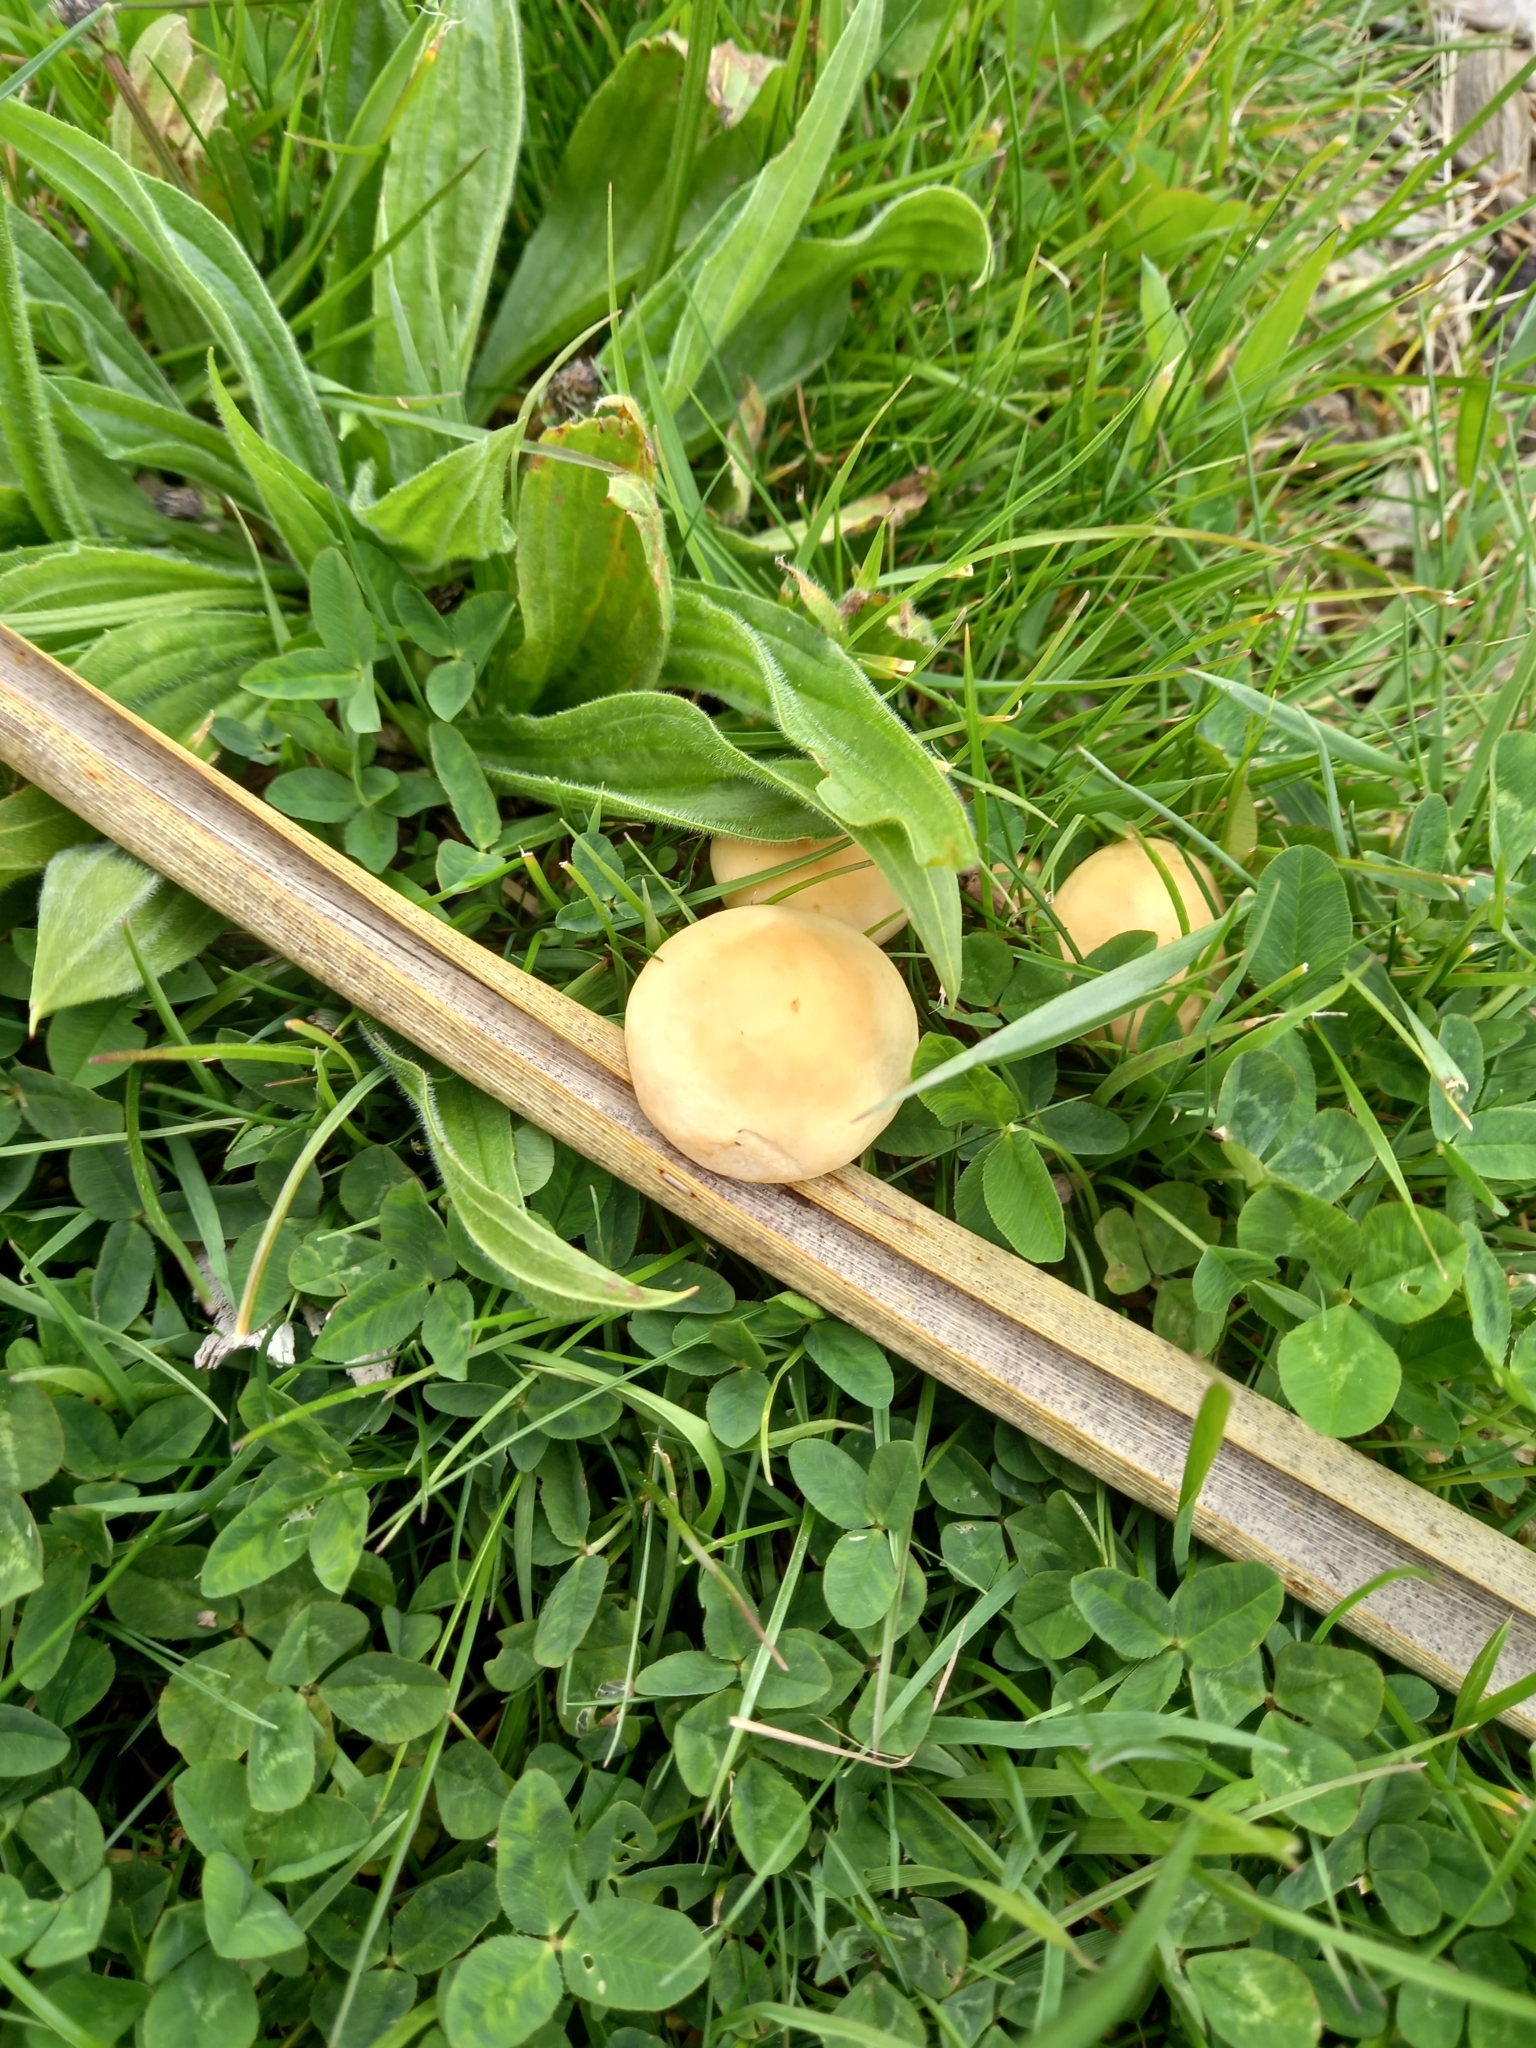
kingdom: Fungi
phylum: Basidiomycota
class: Agaricomycetes
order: Agaricales
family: Strophariaceae
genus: Agrocybe
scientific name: Agrocybe praecox
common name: Spring fieldcap
